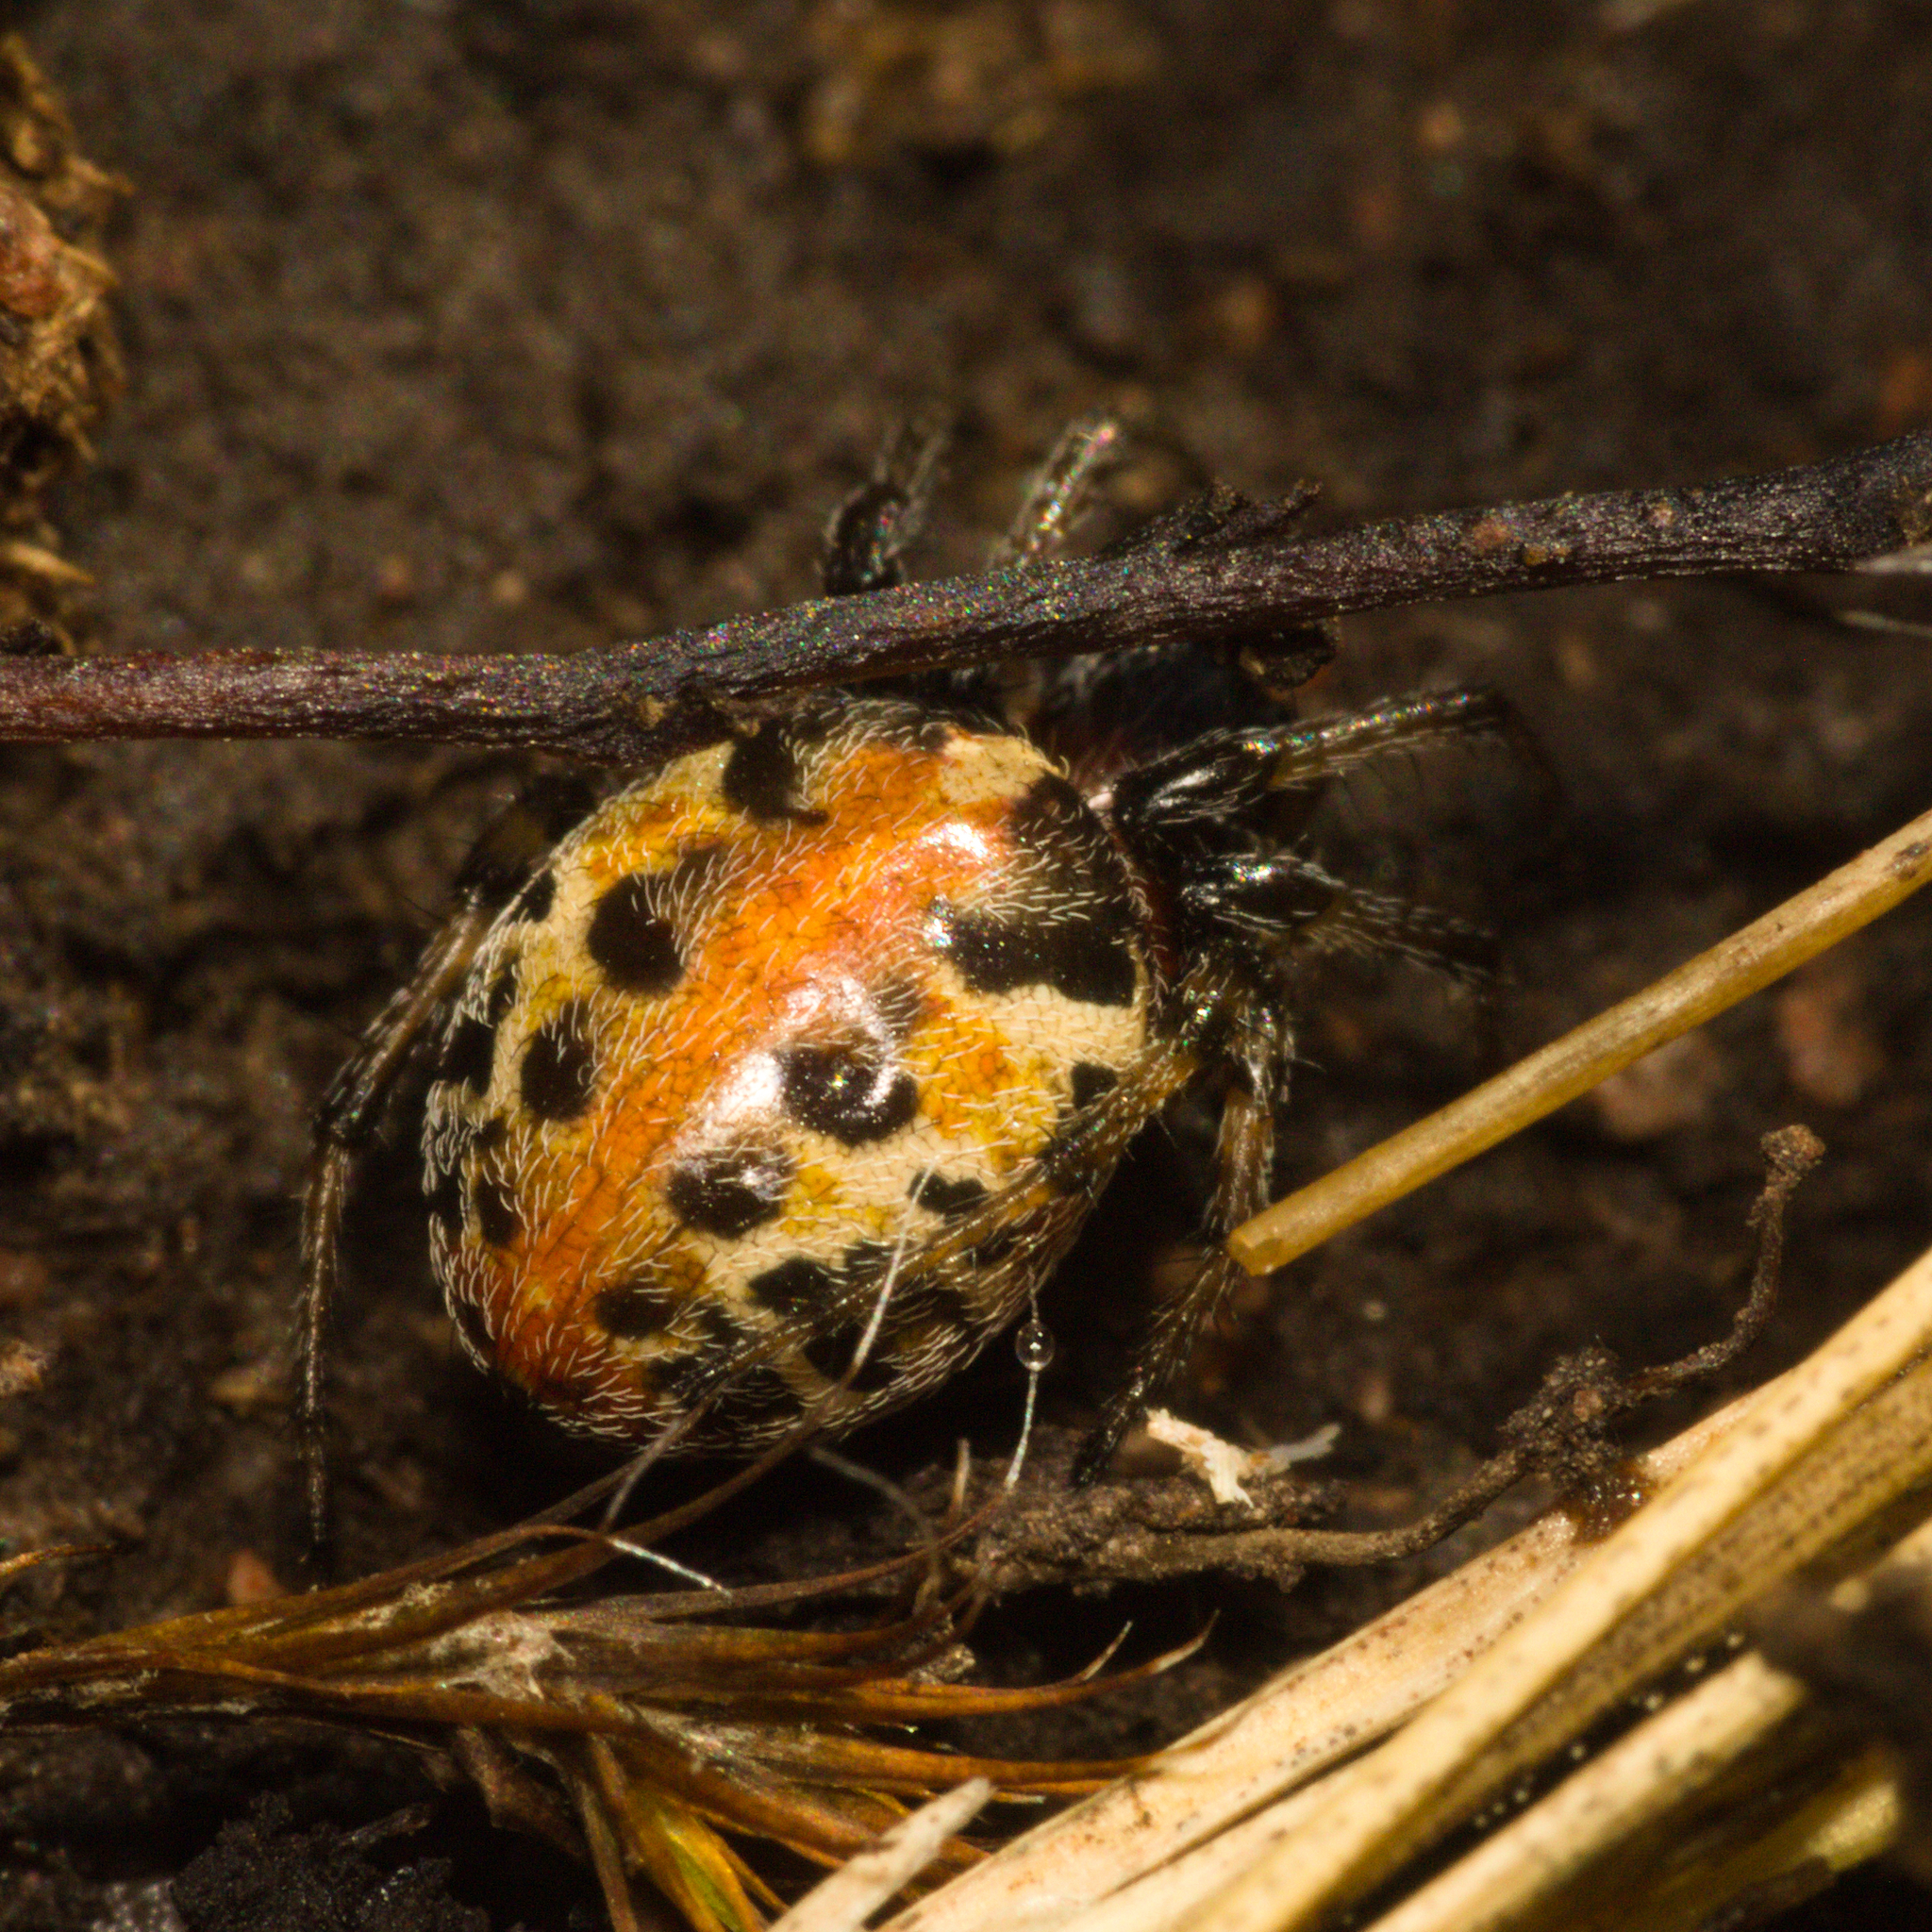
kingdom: Animalia
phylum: Arthropoda
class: Arachnida
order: Araneae
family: Araneidae
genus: Alpaida
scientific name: Alpaida versicolor
